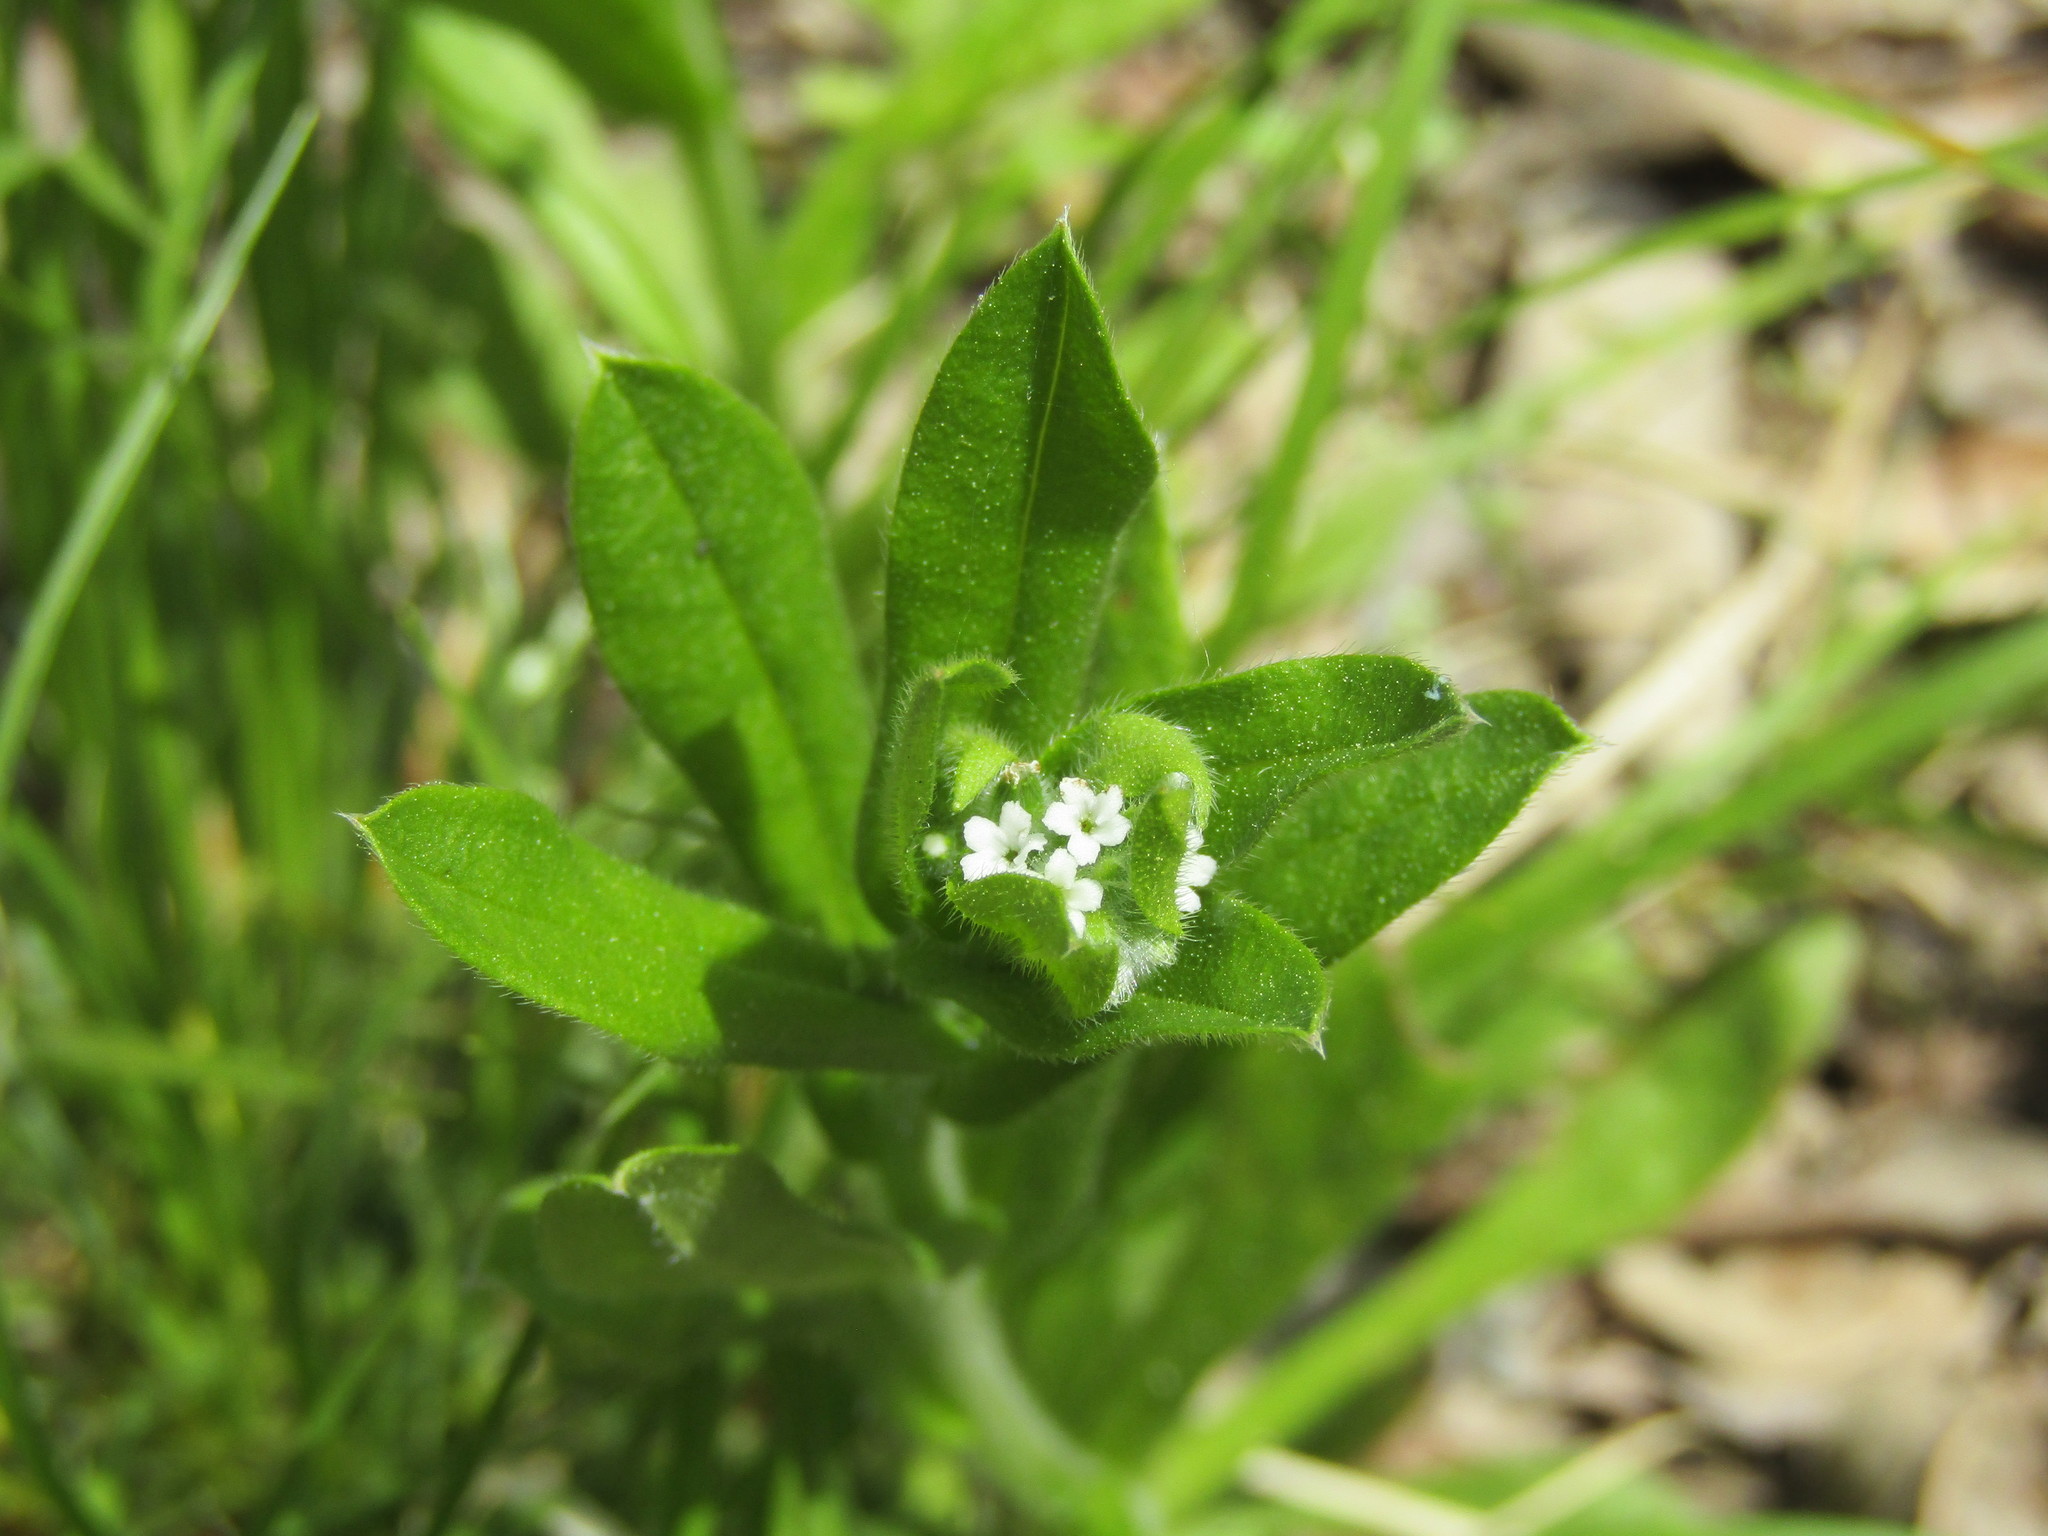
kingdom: Plantae
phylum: Tracheophyta
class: Magnoliopsida
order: Boraginales
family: Boraginaceae
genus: Myosotis
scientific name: Myosotis macrosperma
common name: Large-seed forget-me-not
